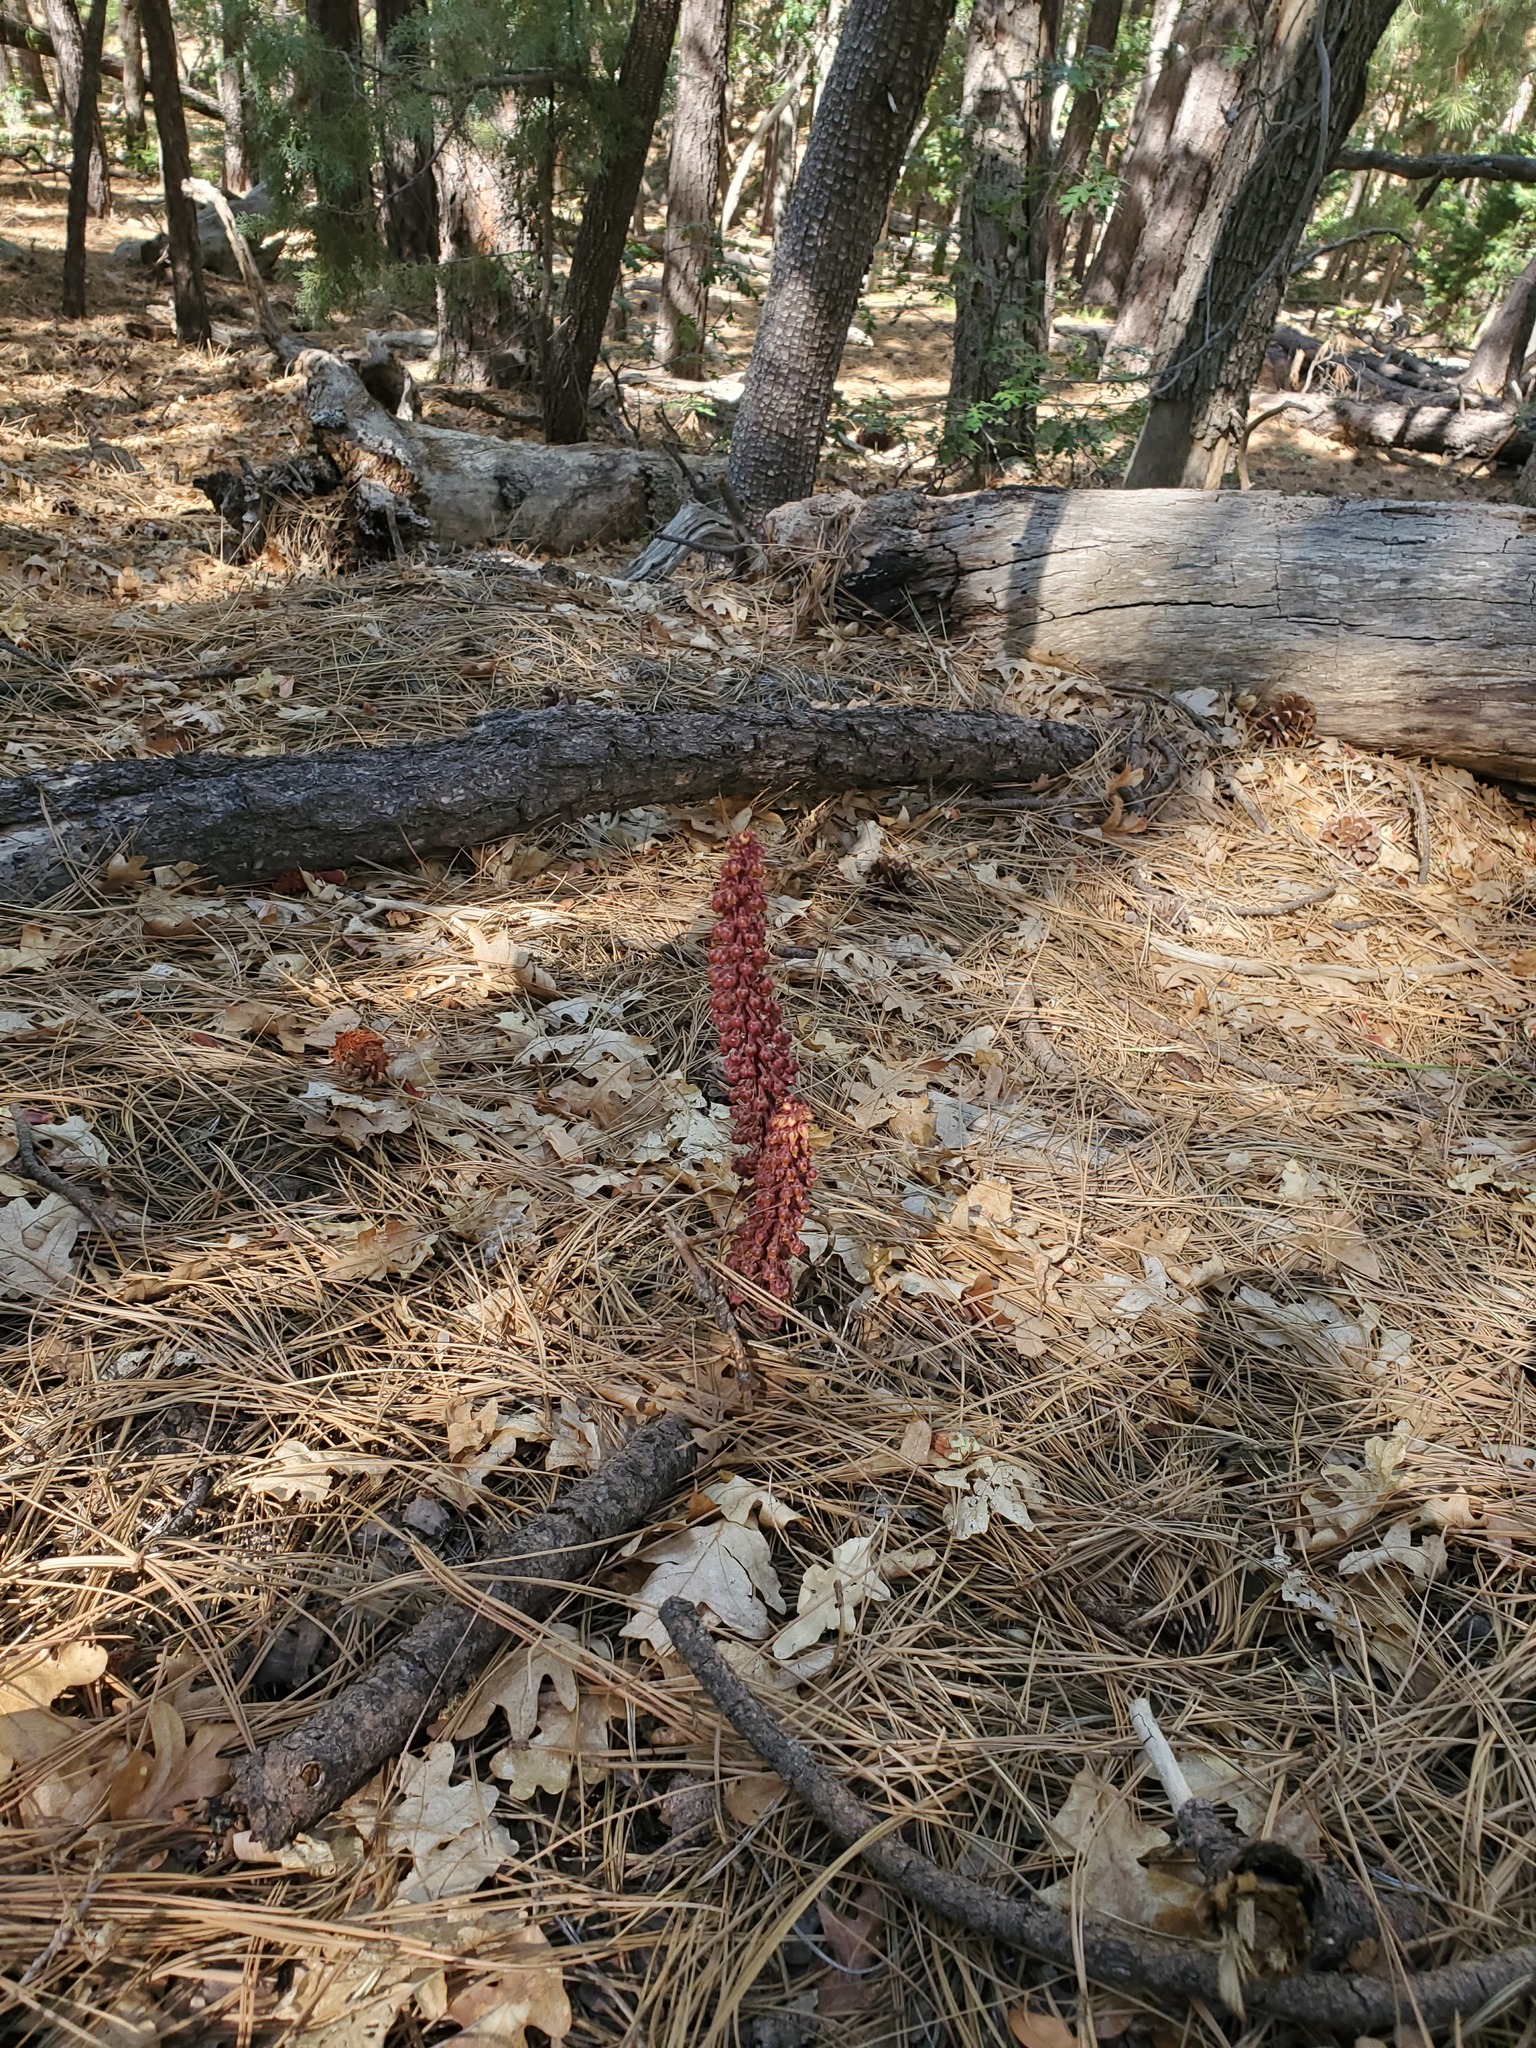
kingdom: Plantae
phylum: Tracheophyta
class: Magnoliopsida
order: Ericales
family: Ericaceae
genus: Pterospora
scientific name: Pterospora andromedea
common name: Giant bird's-nest
